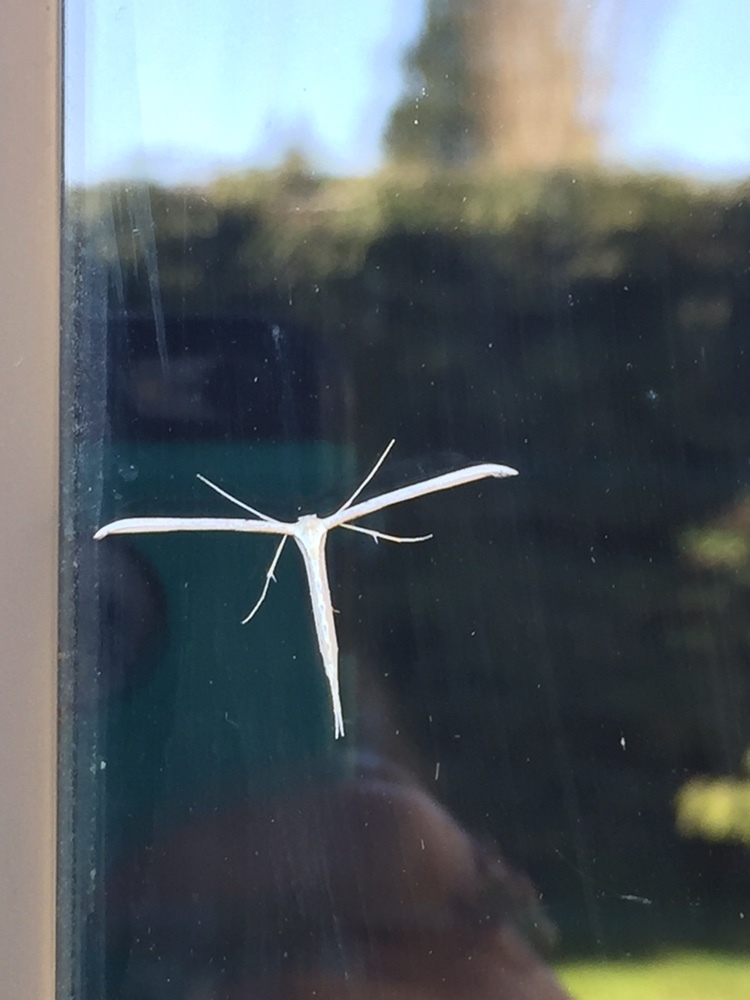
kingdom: Animalia
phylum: Arthropoda
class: Insecta
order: Lepidoptera
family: Pterophoridae
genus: Emmelina
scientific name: Emmelina monodactyla
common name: Common plume
